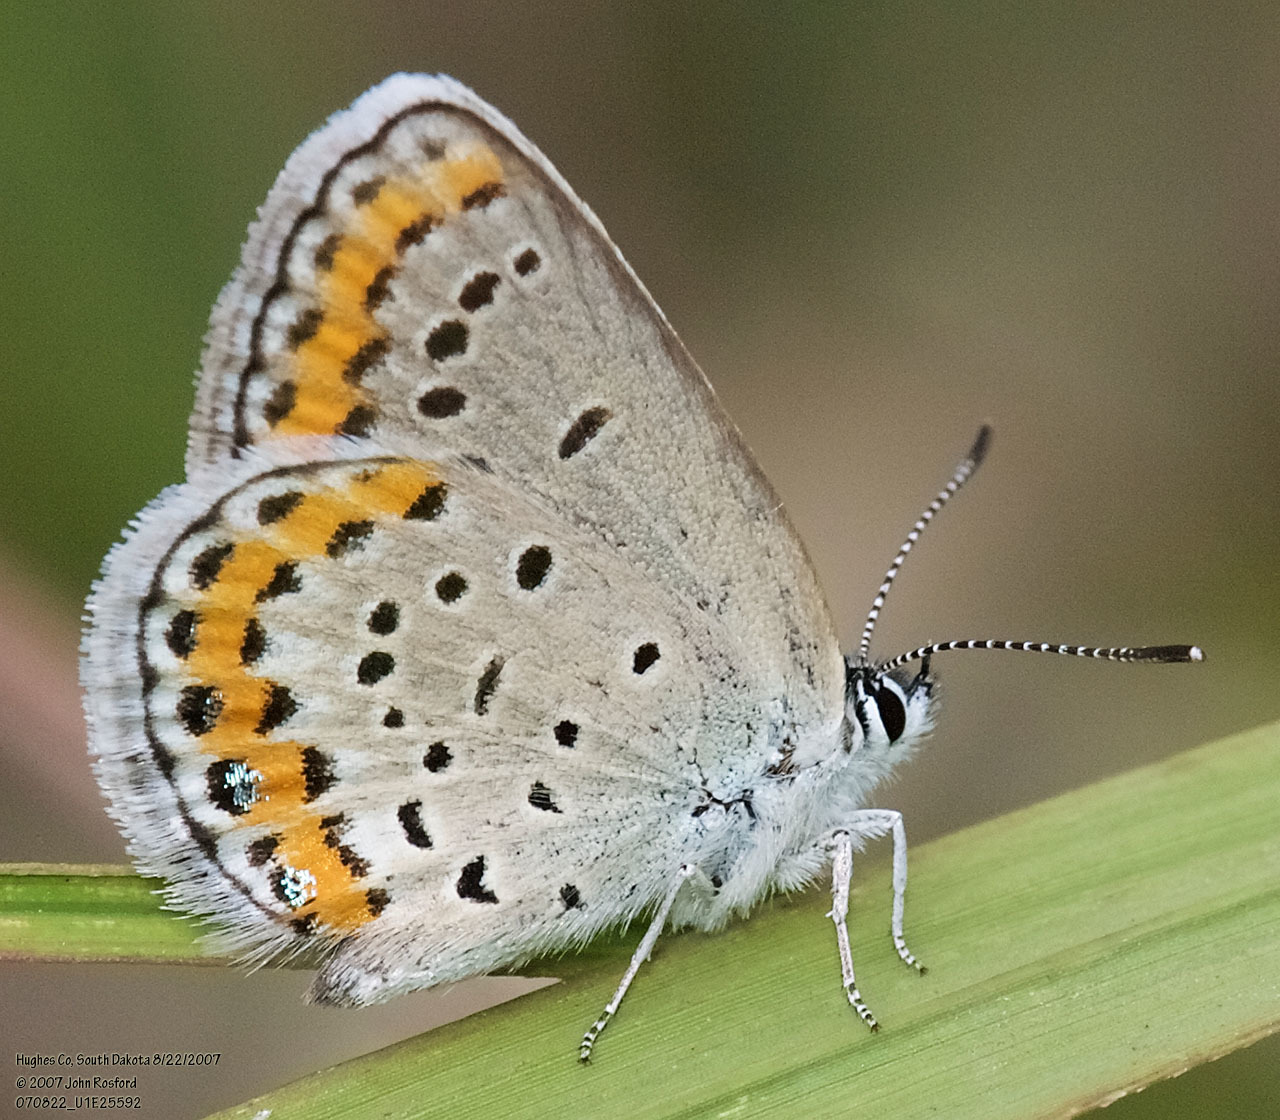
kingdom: Animalia
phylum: Arthropoda
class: Insecta
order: Lepidoptera
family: Lycaenidae
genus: Lycaeides
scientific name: Lycaeides melissa
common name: Melissa blue
